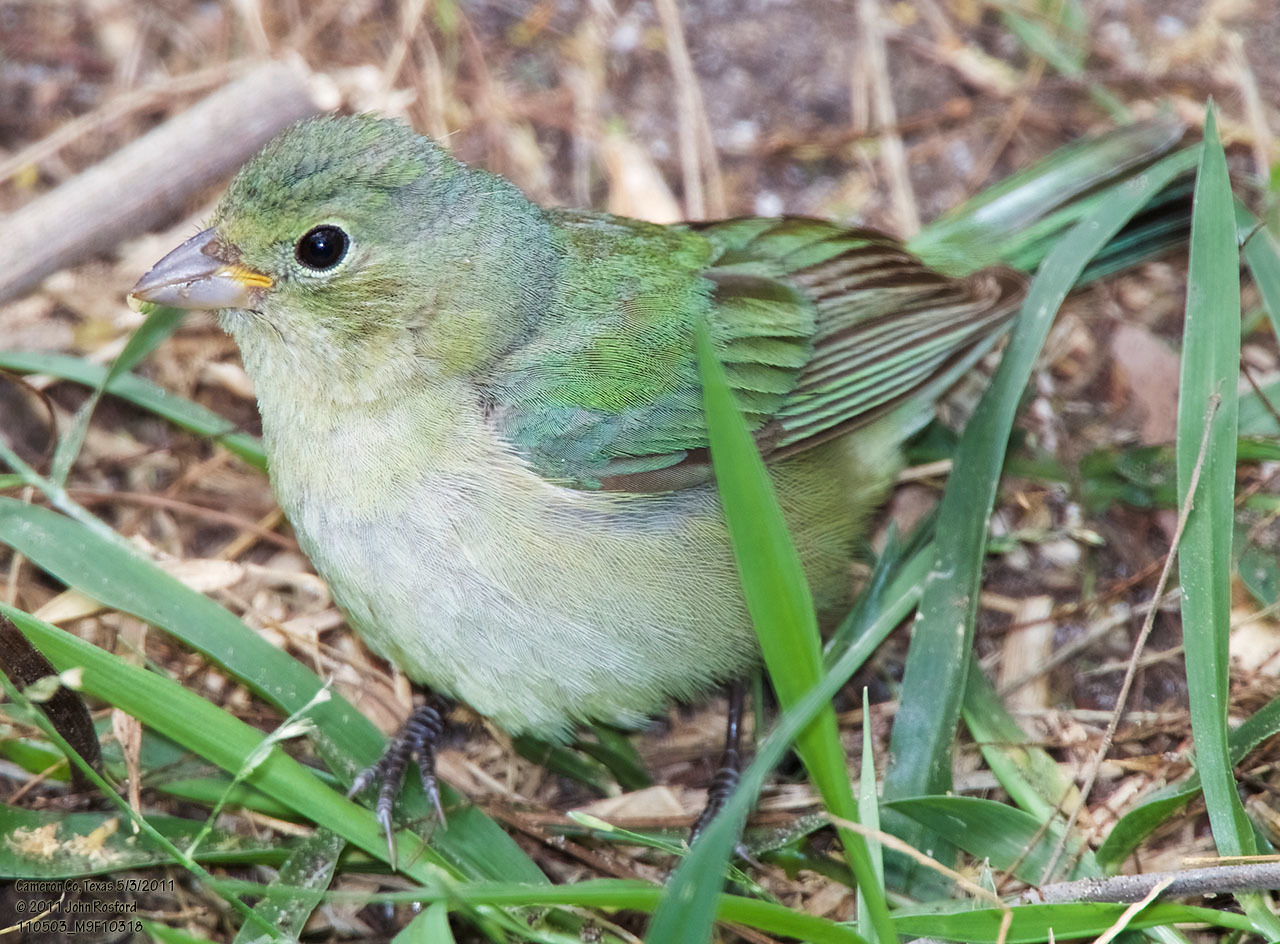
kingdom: Animalia
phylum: Chordata
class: Aves
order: Passeriformes
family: Cardinalidae
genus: Passerina
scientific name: Passerina ciris
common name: Painted bunting
